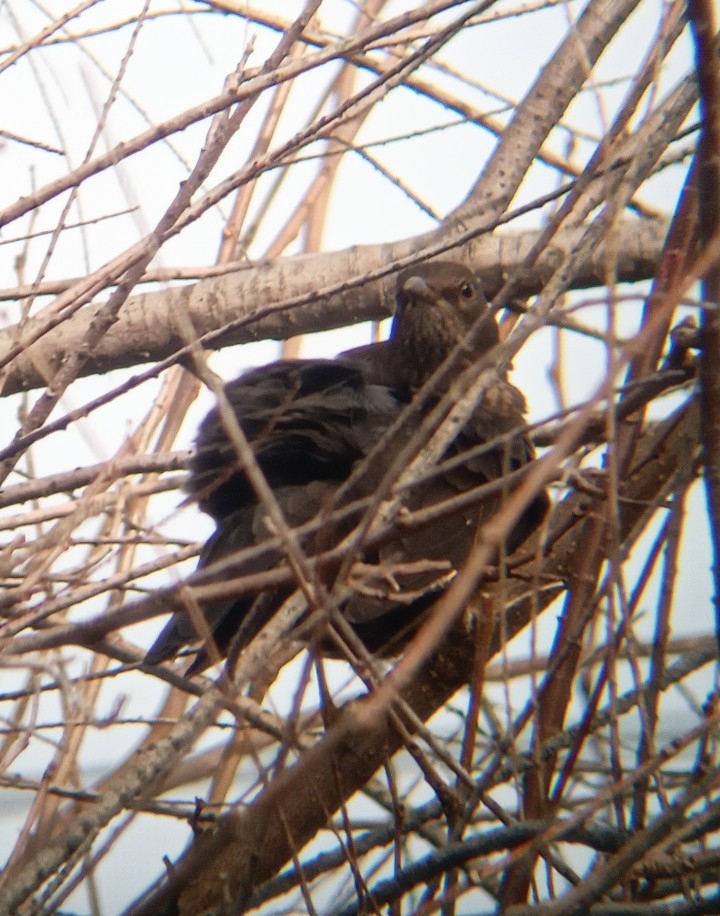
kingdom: Animalia
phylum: Chordata
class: Aves
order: Passeriformes
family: Turdidae
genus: Turdus
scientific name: Turdus merula
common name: Common blackbird
